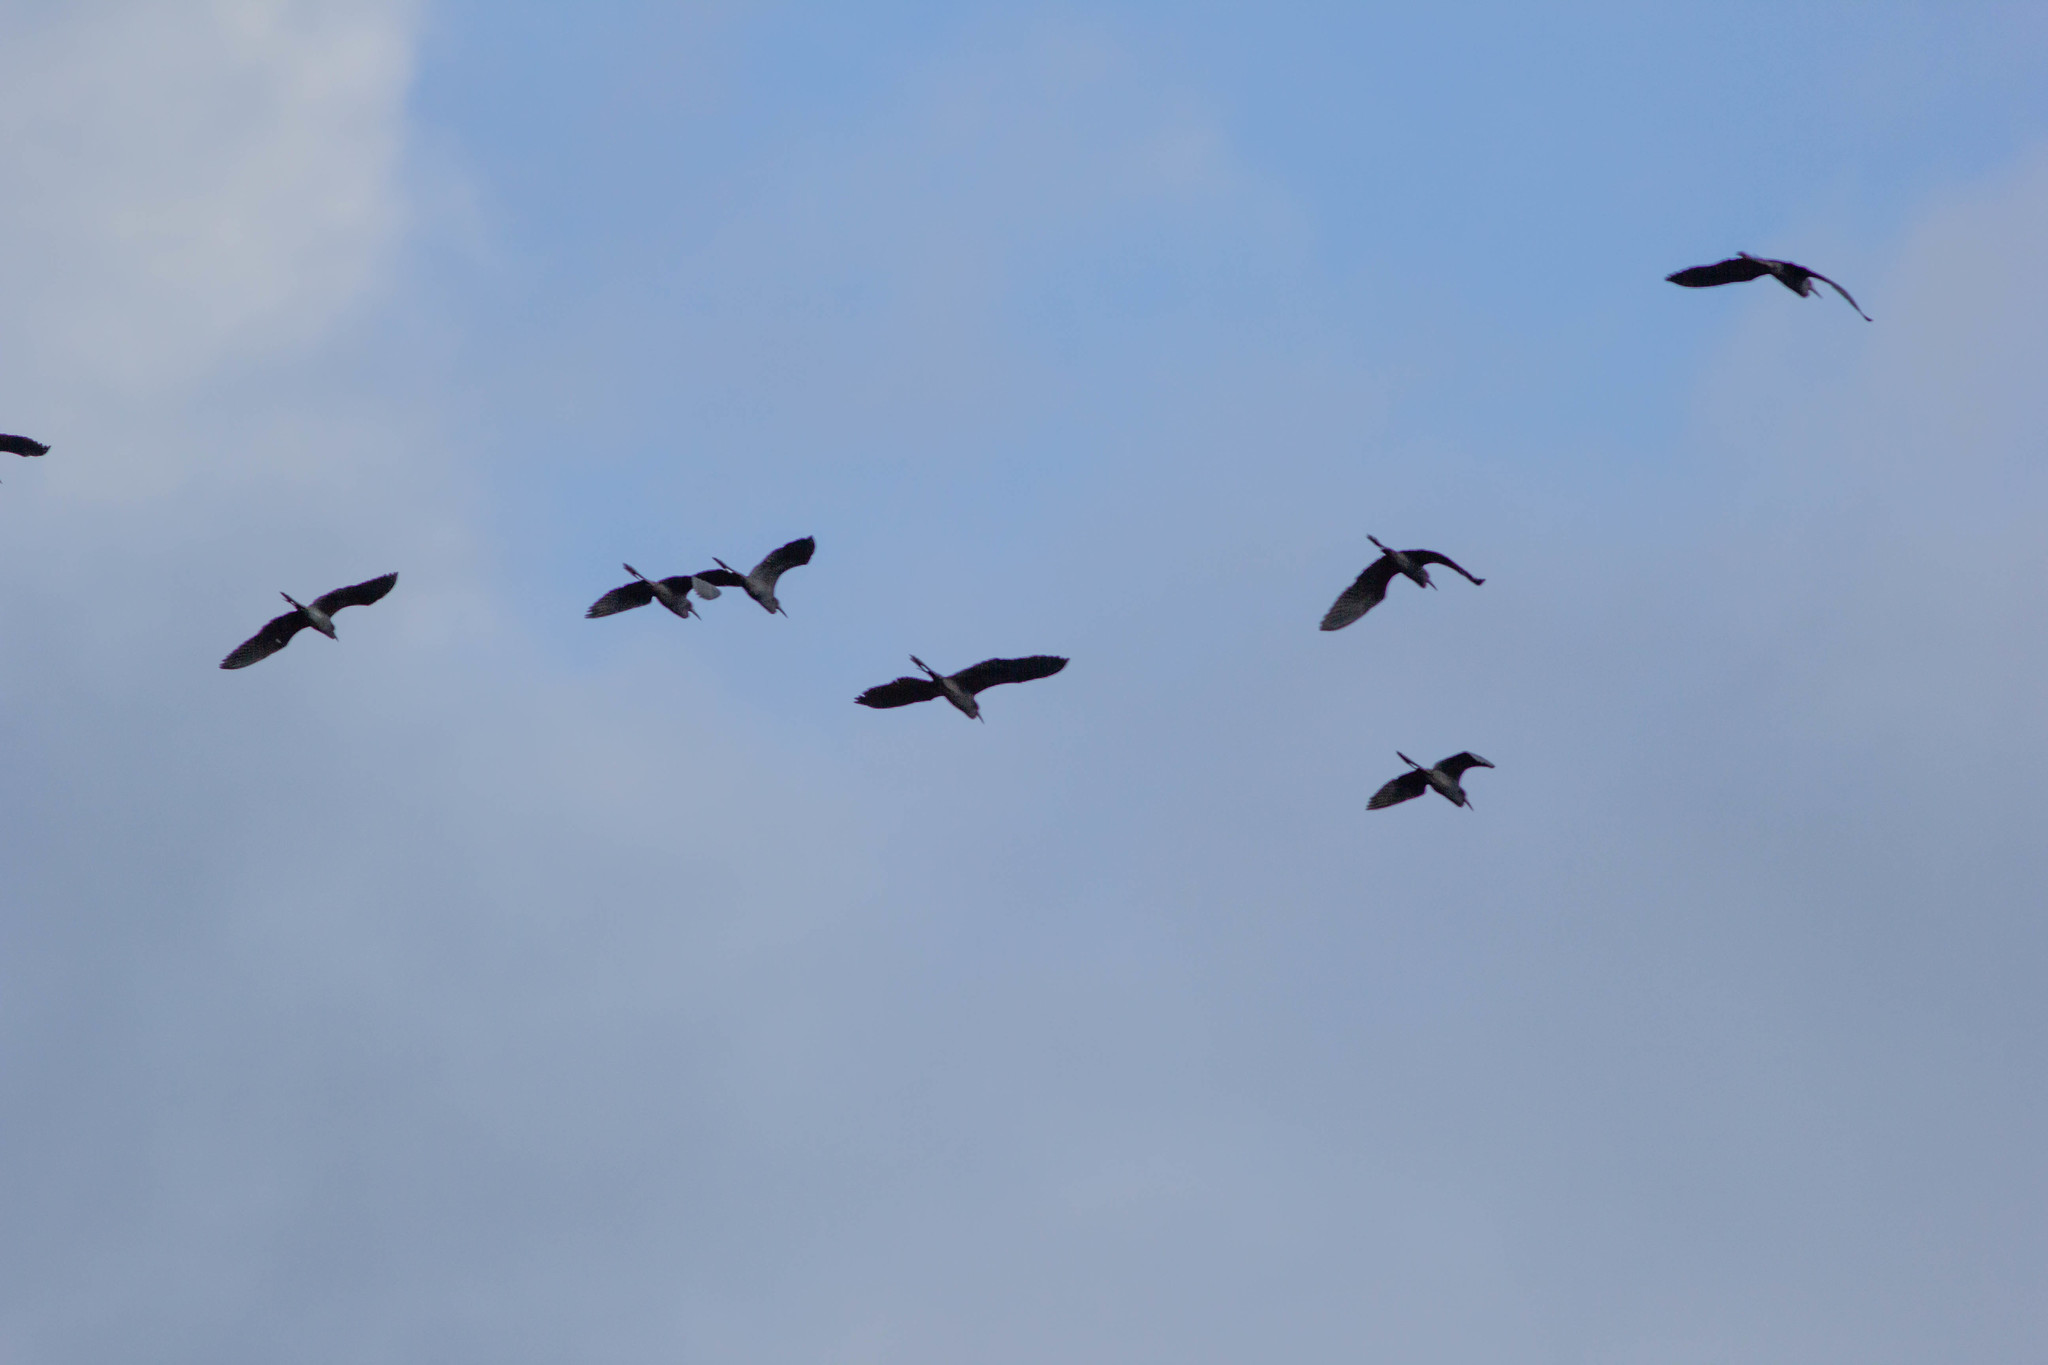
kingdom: Animalia
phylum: Chordata
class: Aves
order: Pelecaniformes
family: Ardeidae
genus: Egretta
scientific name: Egretta caerulea
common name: Little blue heron
